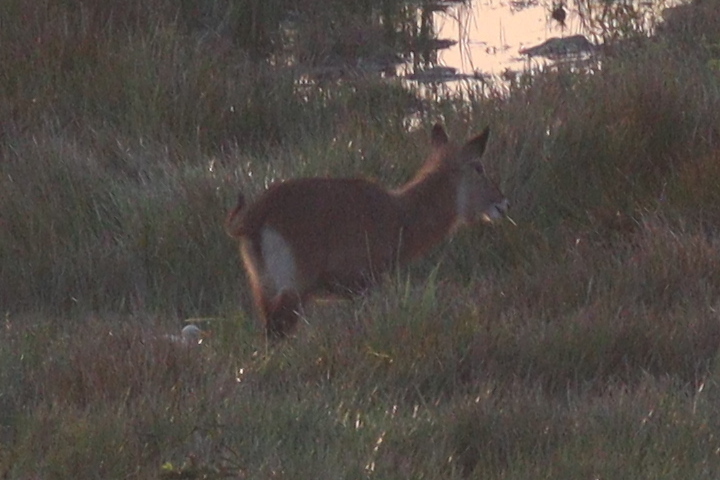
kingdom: Animalia
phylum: Chordata
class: Mammalia
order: Artiodactyla
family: Bovidae
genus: Kobus
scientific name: Kobus ellipsiprymnus
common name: Waterbuck
